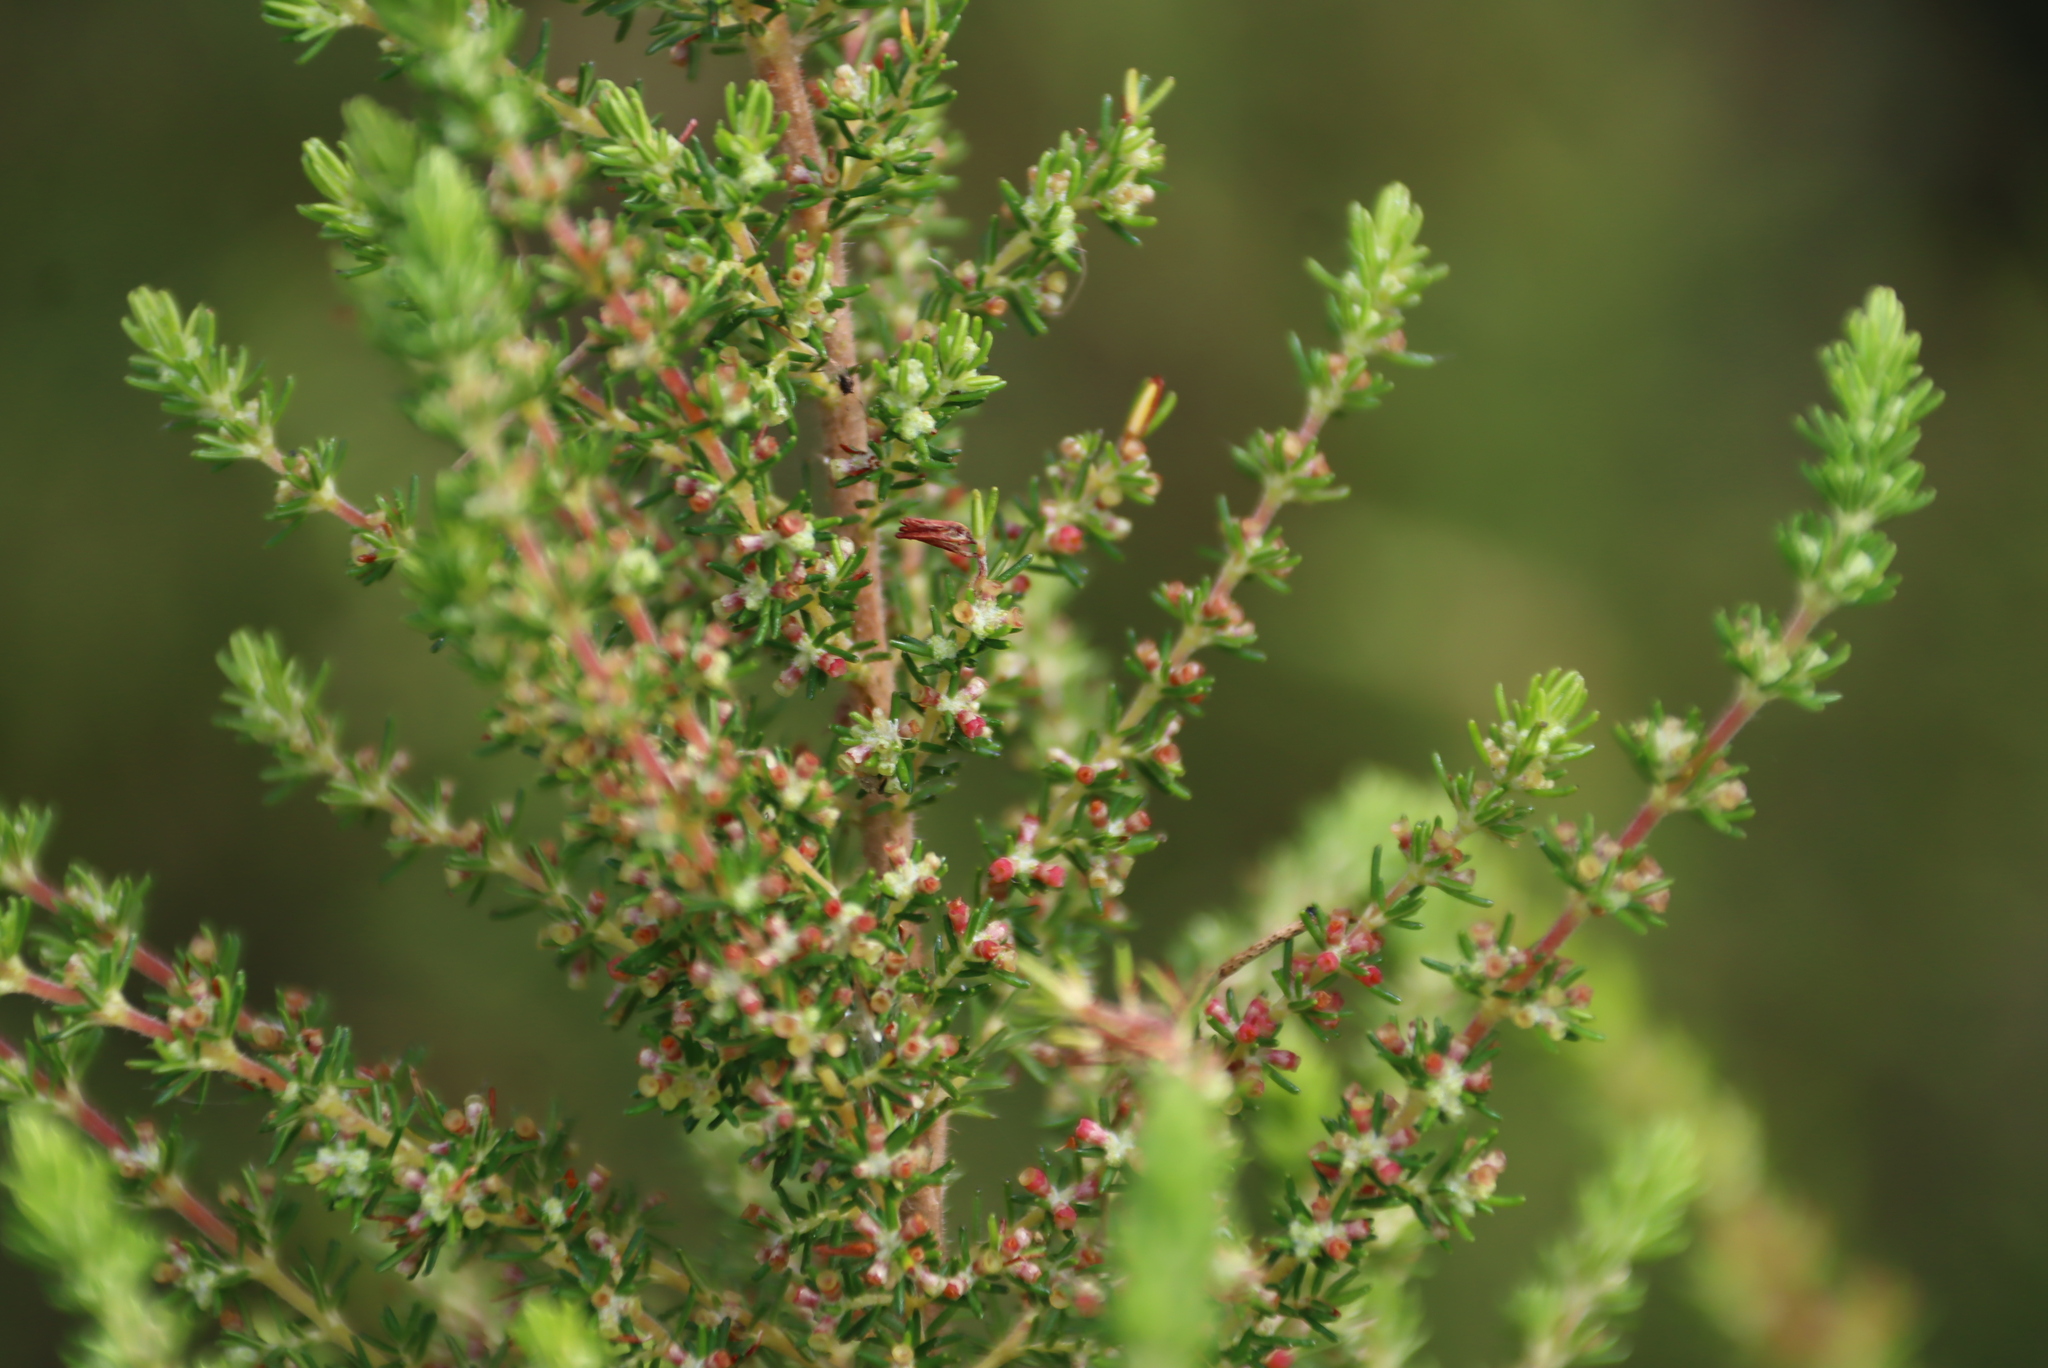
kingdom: Plantae
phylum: Tracheophyta
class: Magnoliopsida
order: Ericales
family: Ericaceae
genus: Erica
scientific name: Erica muscosa
